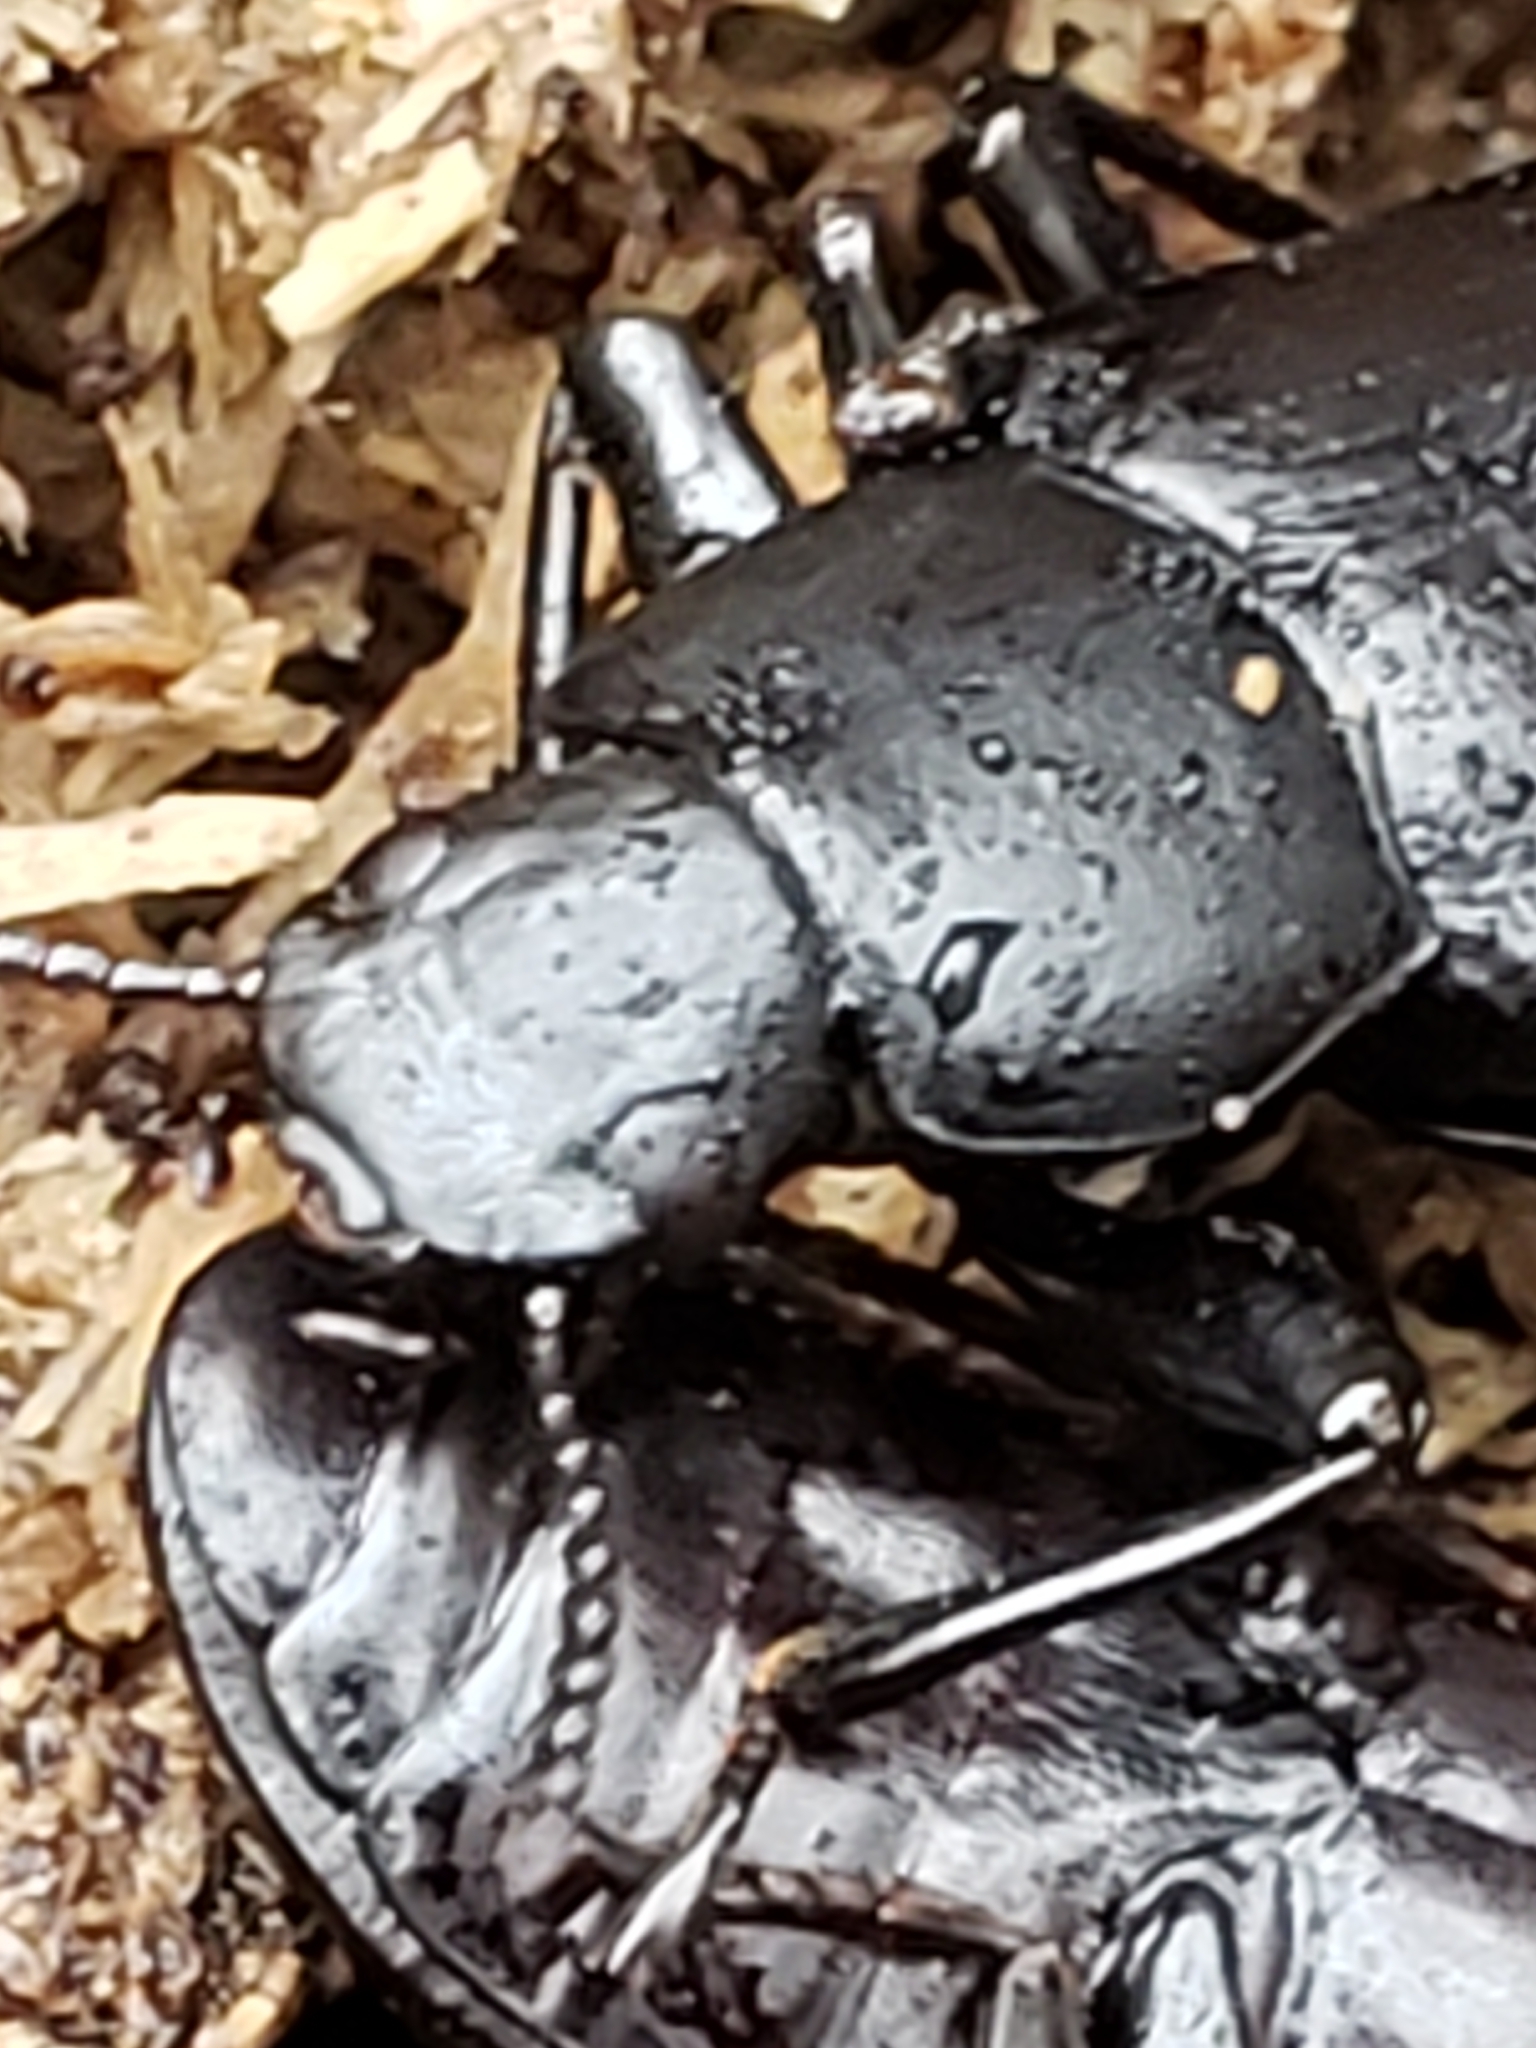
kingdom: Animalia
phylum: Arthropoda
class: Insecta
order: Coleoptera
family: Tenebrionidae
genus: Alobates
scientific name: Alobates pensylvanicus
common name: False mealworm beetle
